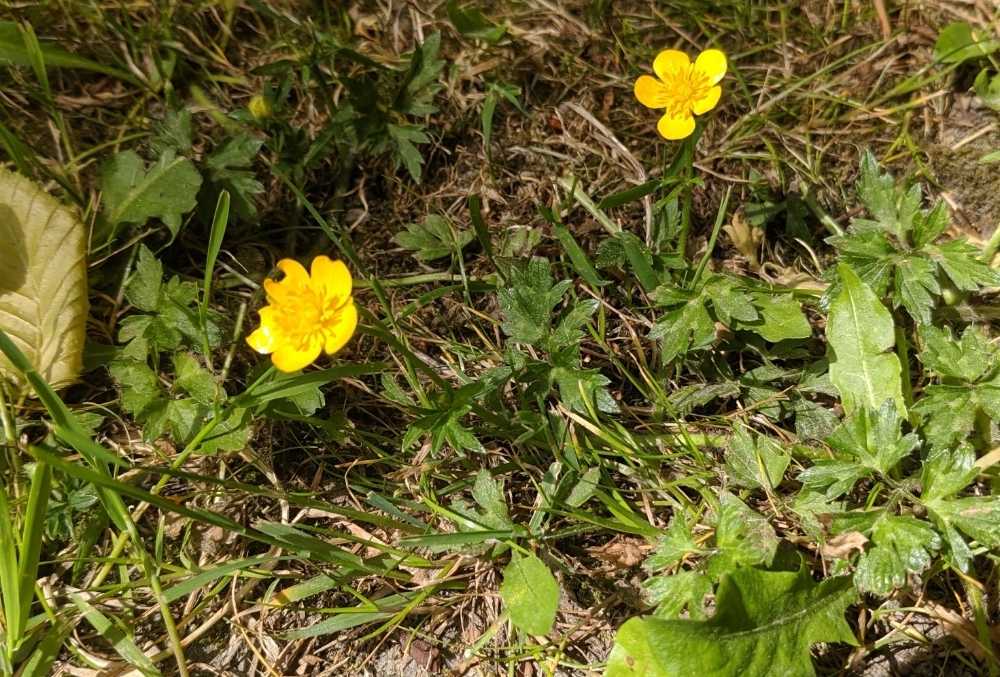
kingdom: Plantae
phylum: Tracheophyta
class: Magnoliopsida
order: Ranunculales
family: Ranunculaceae
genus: Ranunculus
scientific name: Ranunculus repens
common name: Creeping buttercup
